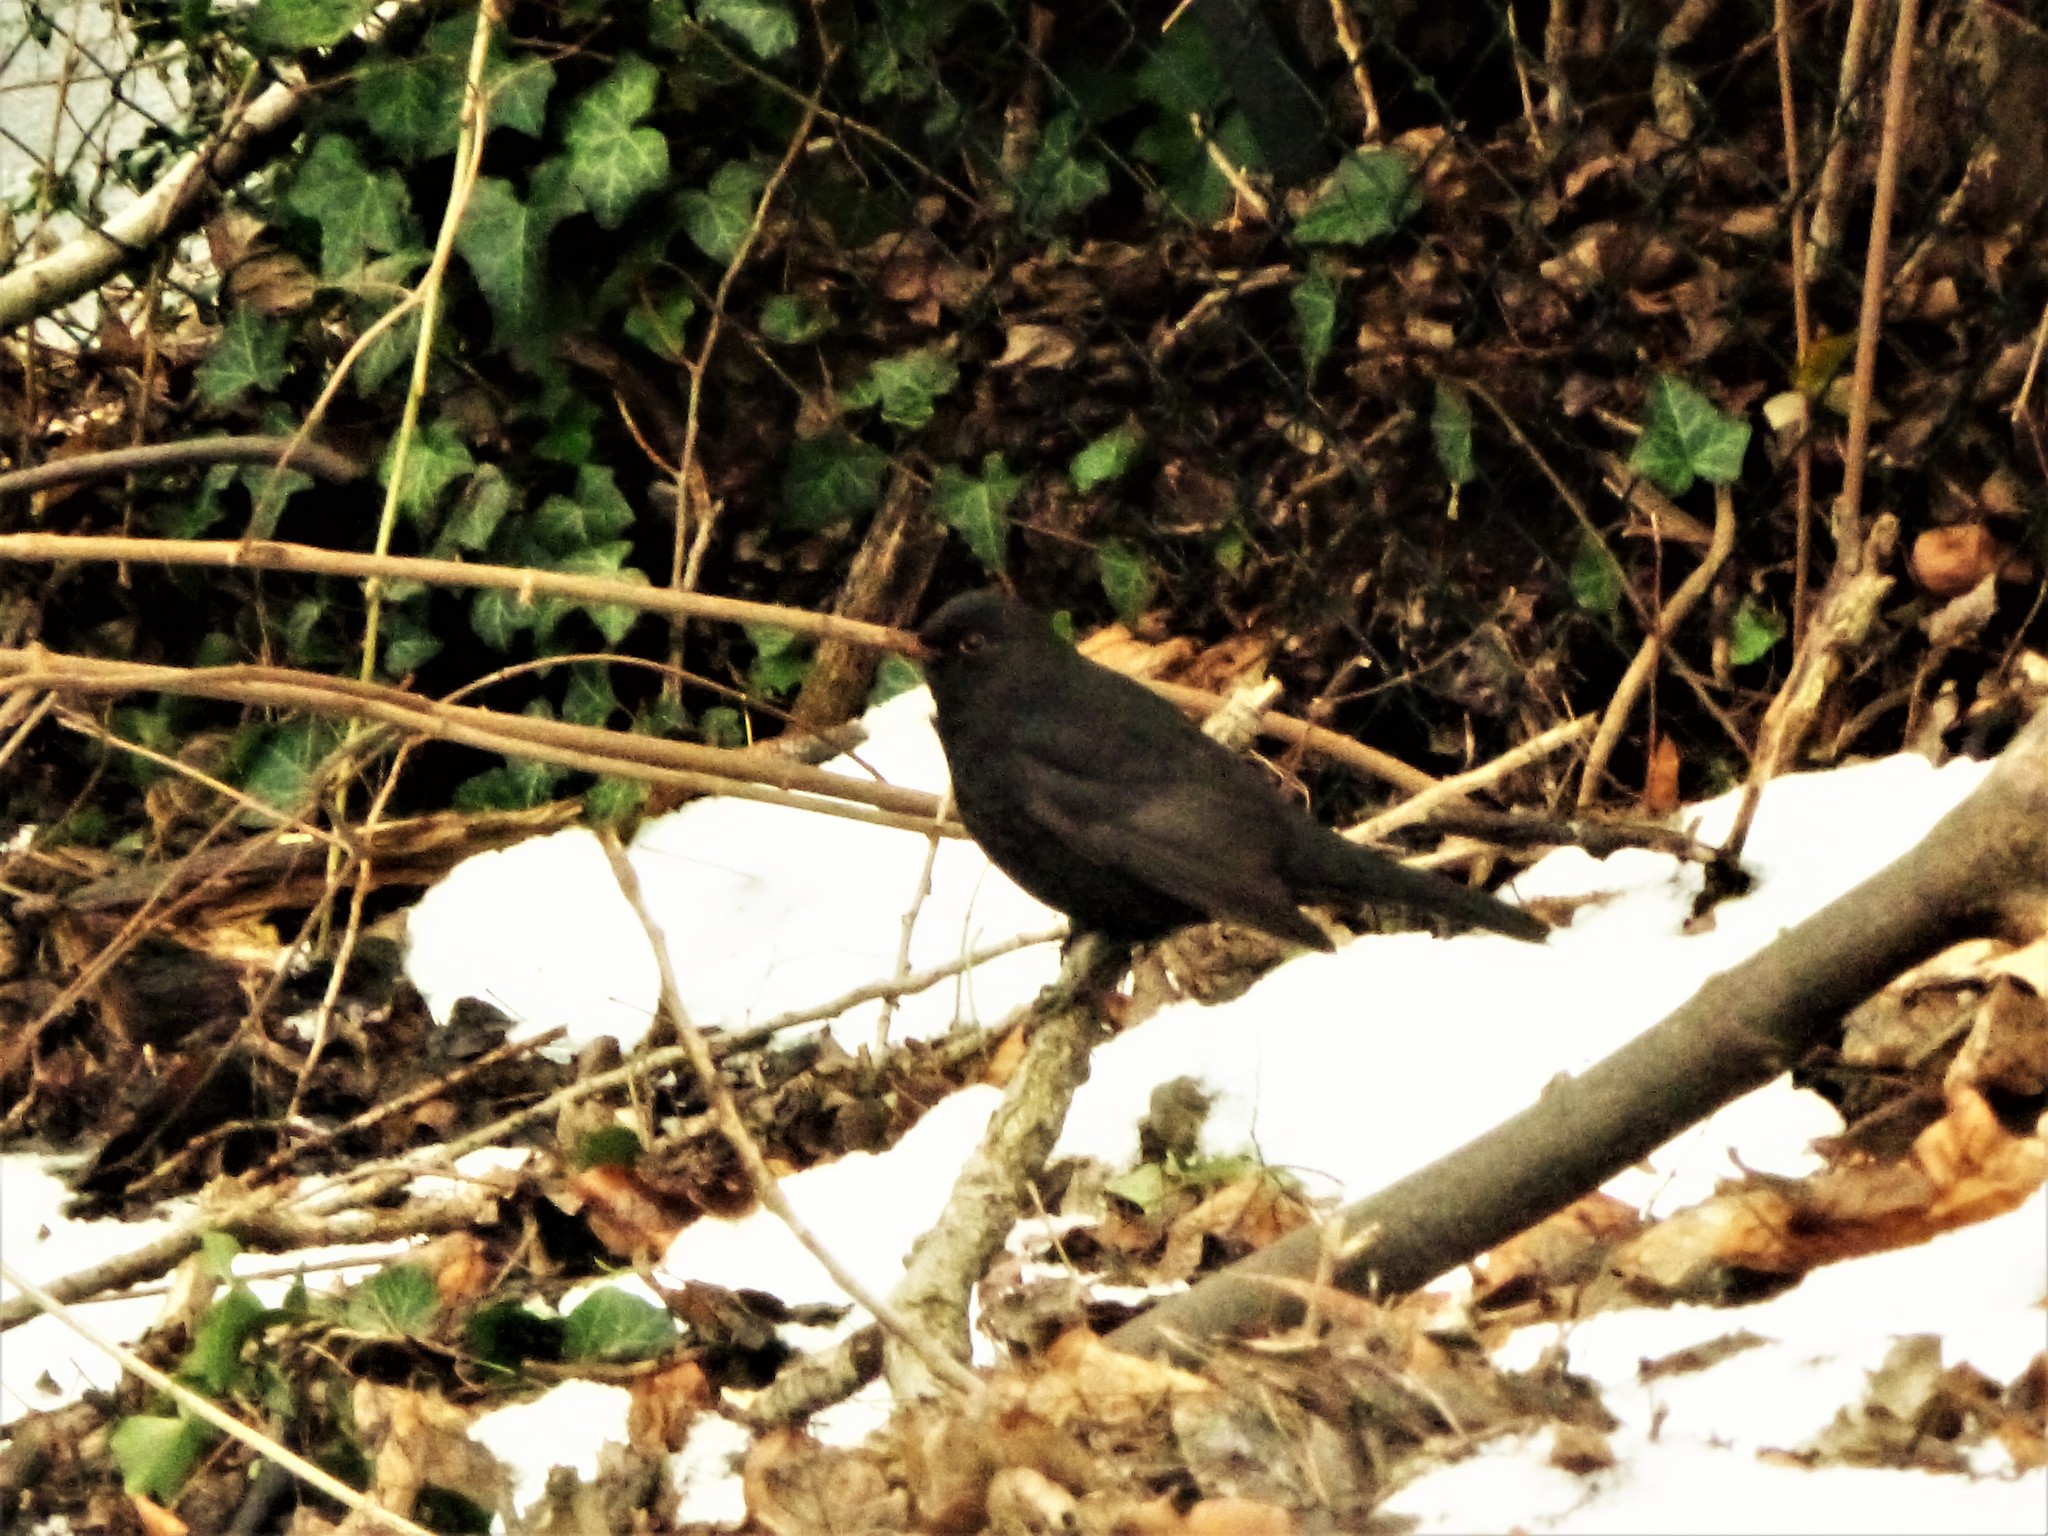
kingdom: Animalia
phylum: Chordata
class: Aves
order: Passeriformes
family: Turdidae
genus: Turdus
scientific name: Turdus merula
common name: Common blackbird
